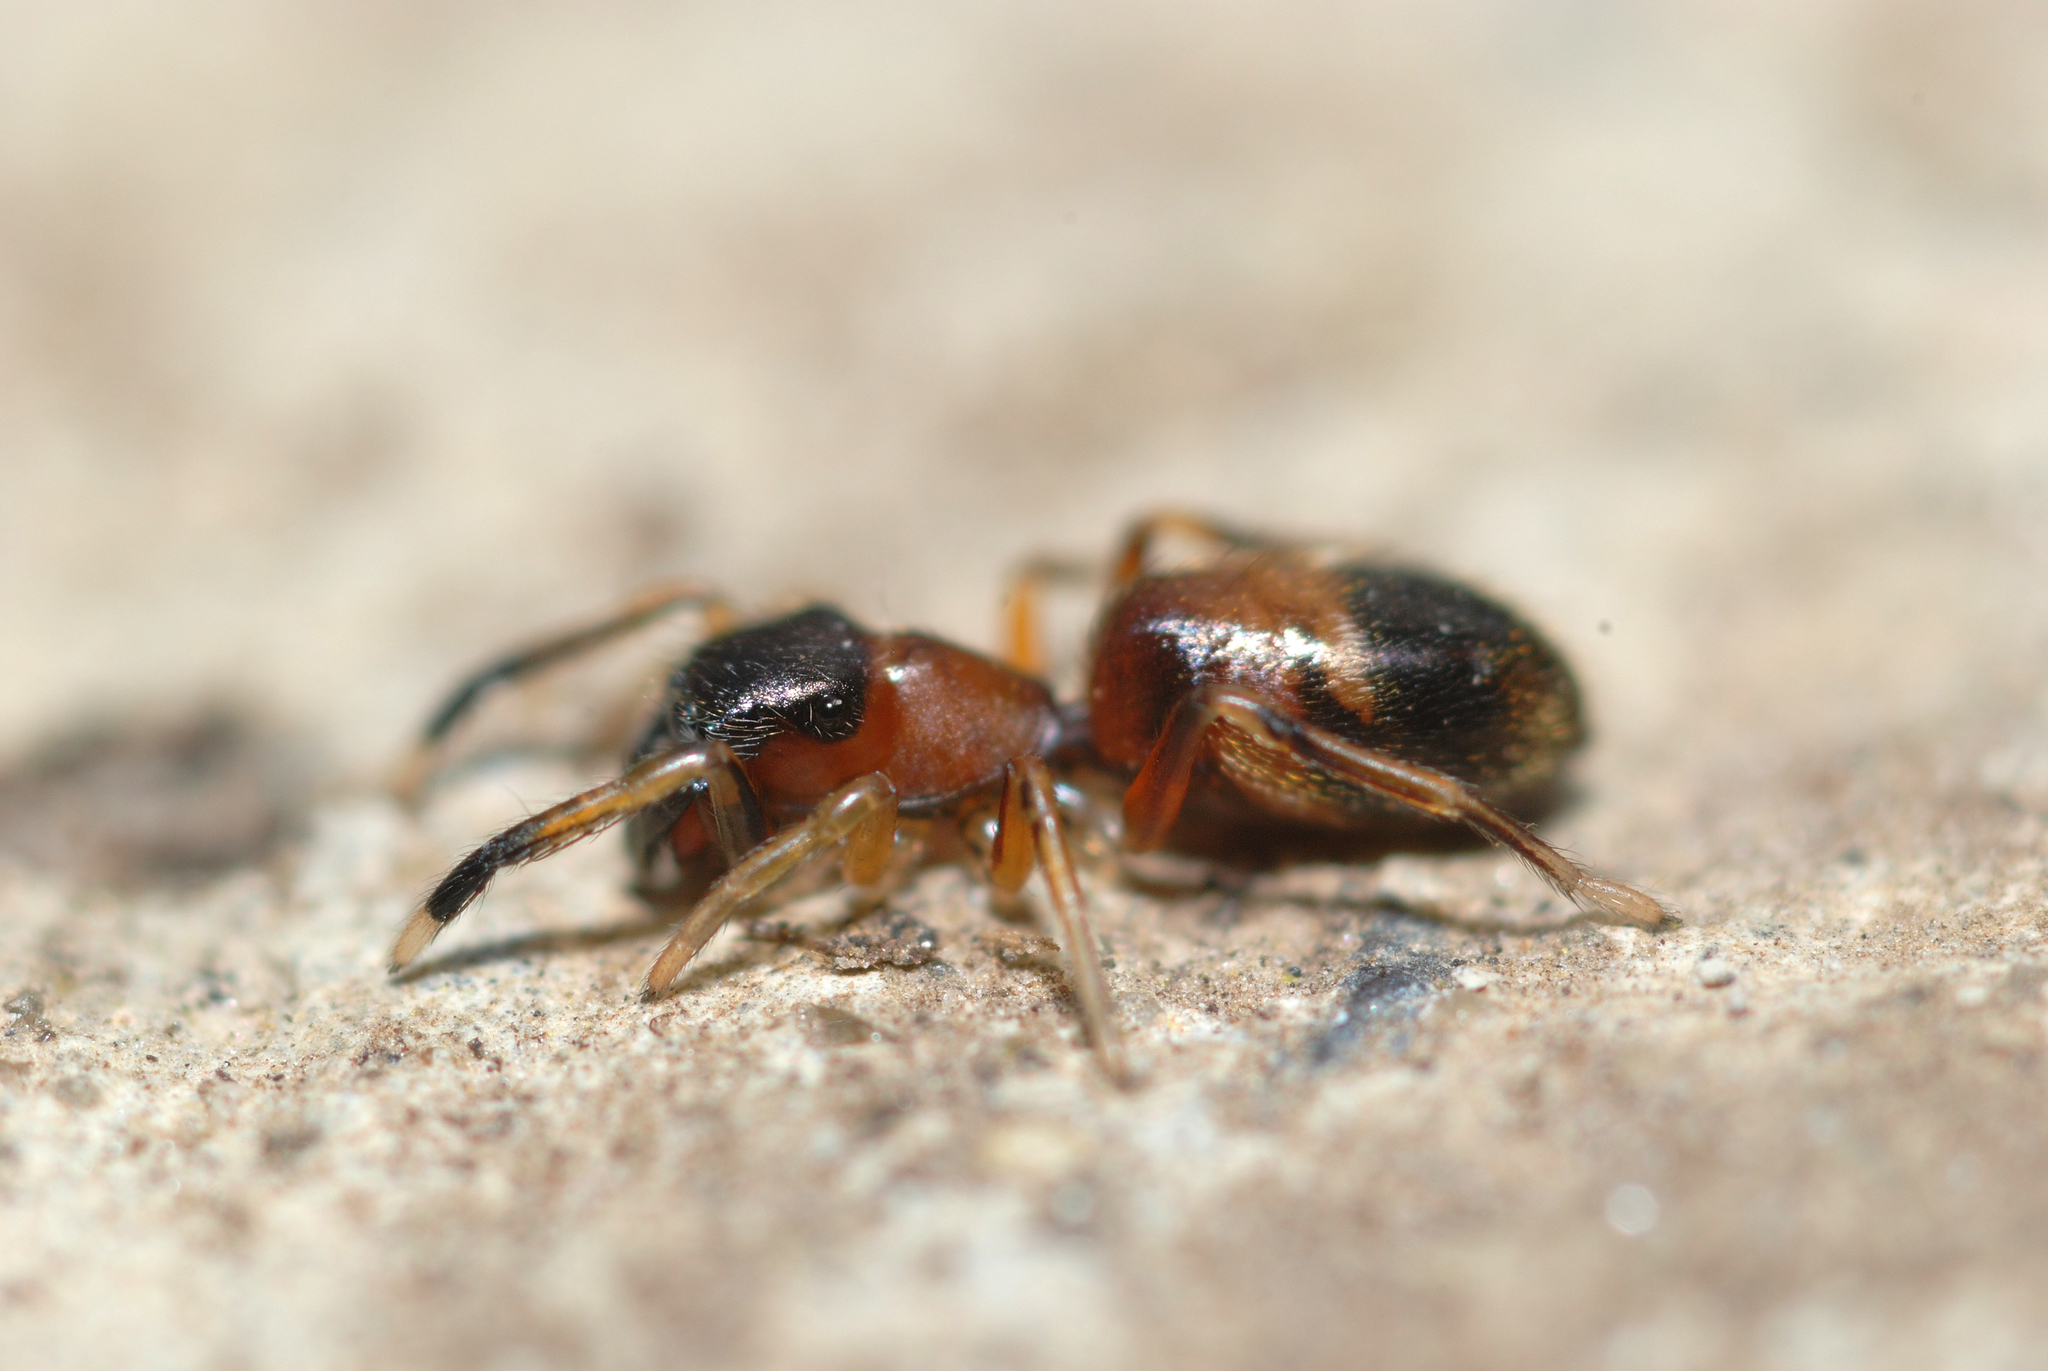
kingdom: Animalia
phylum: Arthropoda
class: Arachnida
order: Araneae
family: Salticidae
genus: Myrmarachne
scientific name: Myrmarachne formicaria
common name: Ant mimic jumping spider
